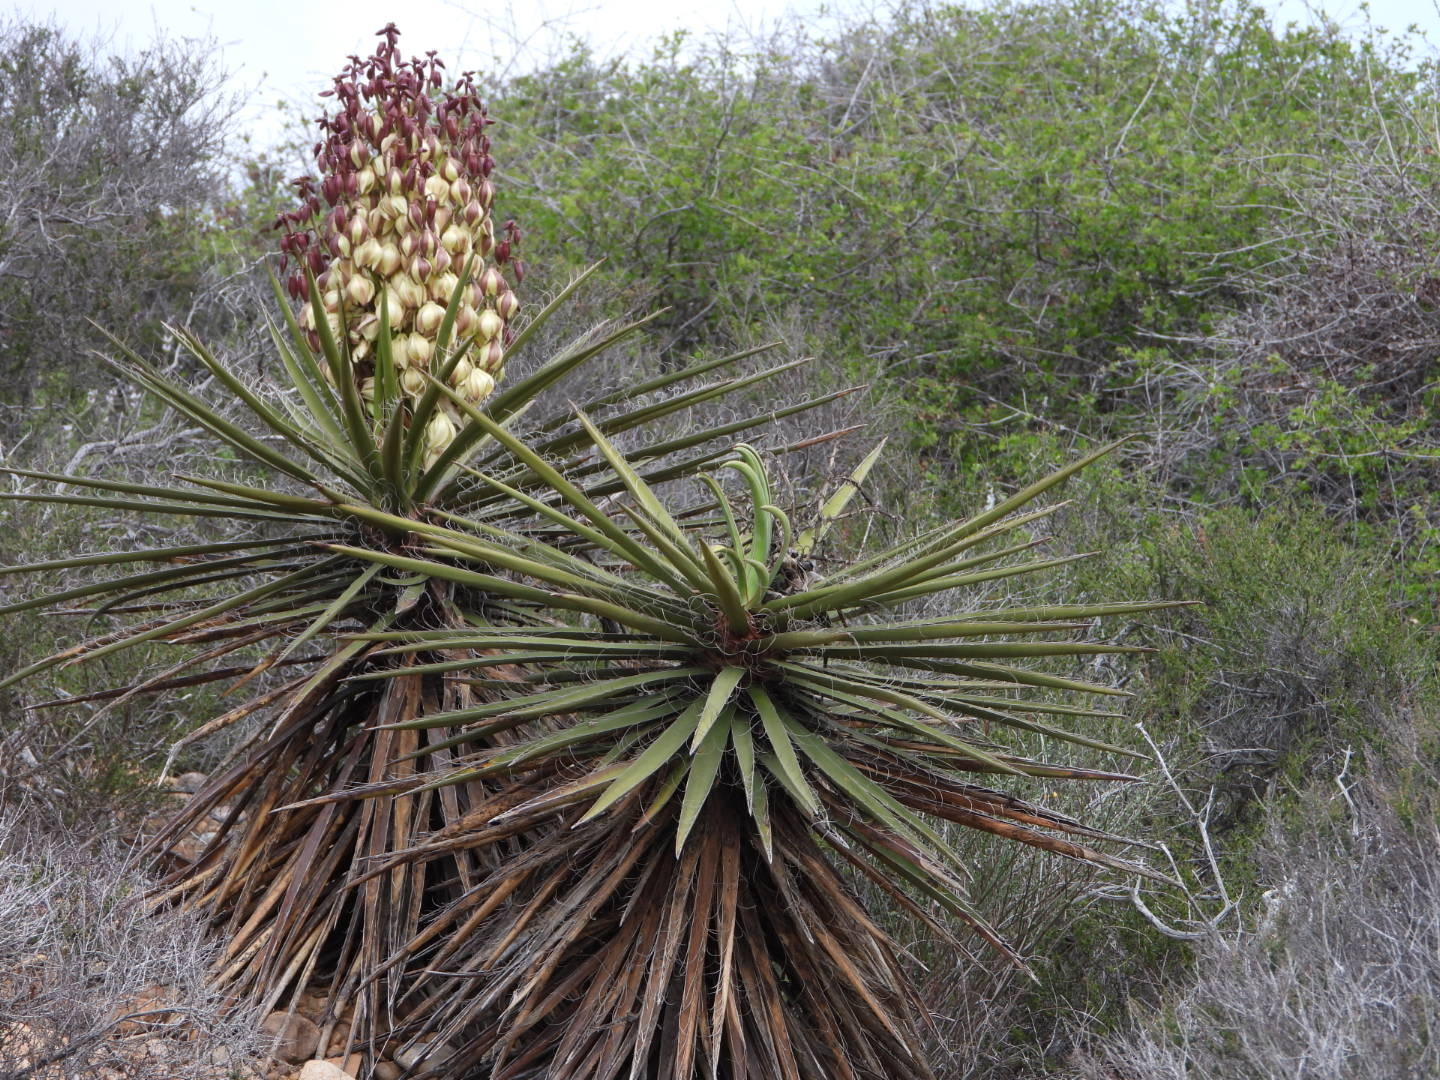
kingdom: Plantae
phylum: Tracheophyta
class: Liliopsida
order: Asparagales
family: Asparagaceae
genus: Yucca
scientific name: Yucca schidigera
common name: Mojave yucca
